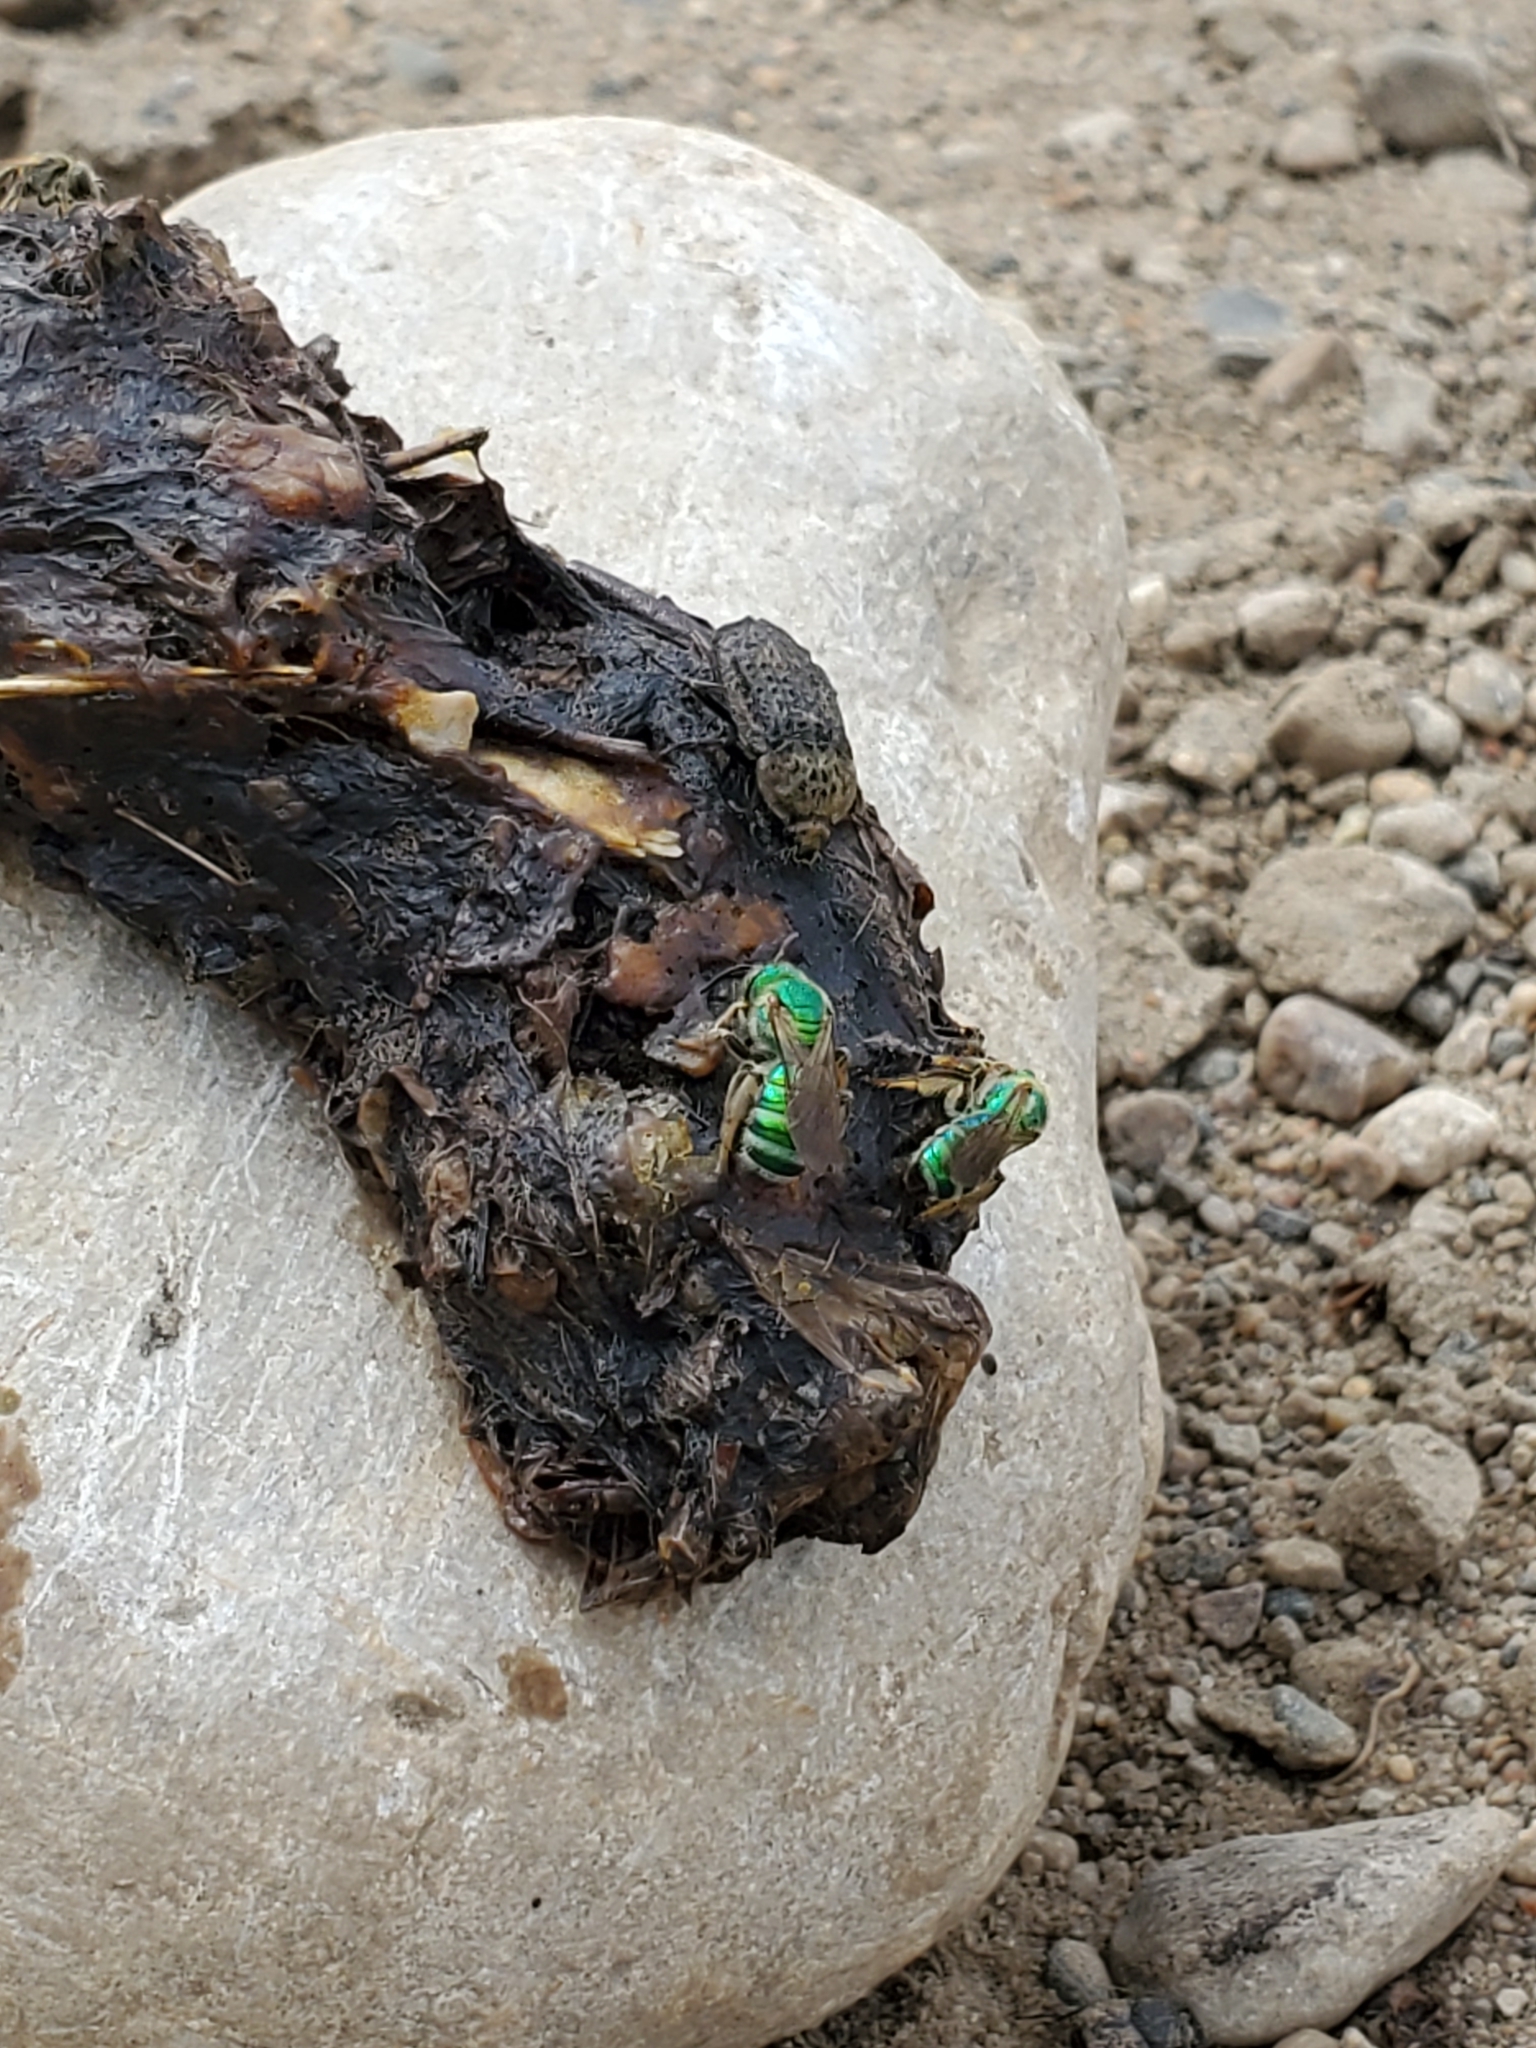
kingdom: Animalia
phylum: Arthropoda
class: Insecta
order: Coleoptera
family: Staphylinidae
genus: Thanatophilus
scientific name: Thanatophilus lapponicus
